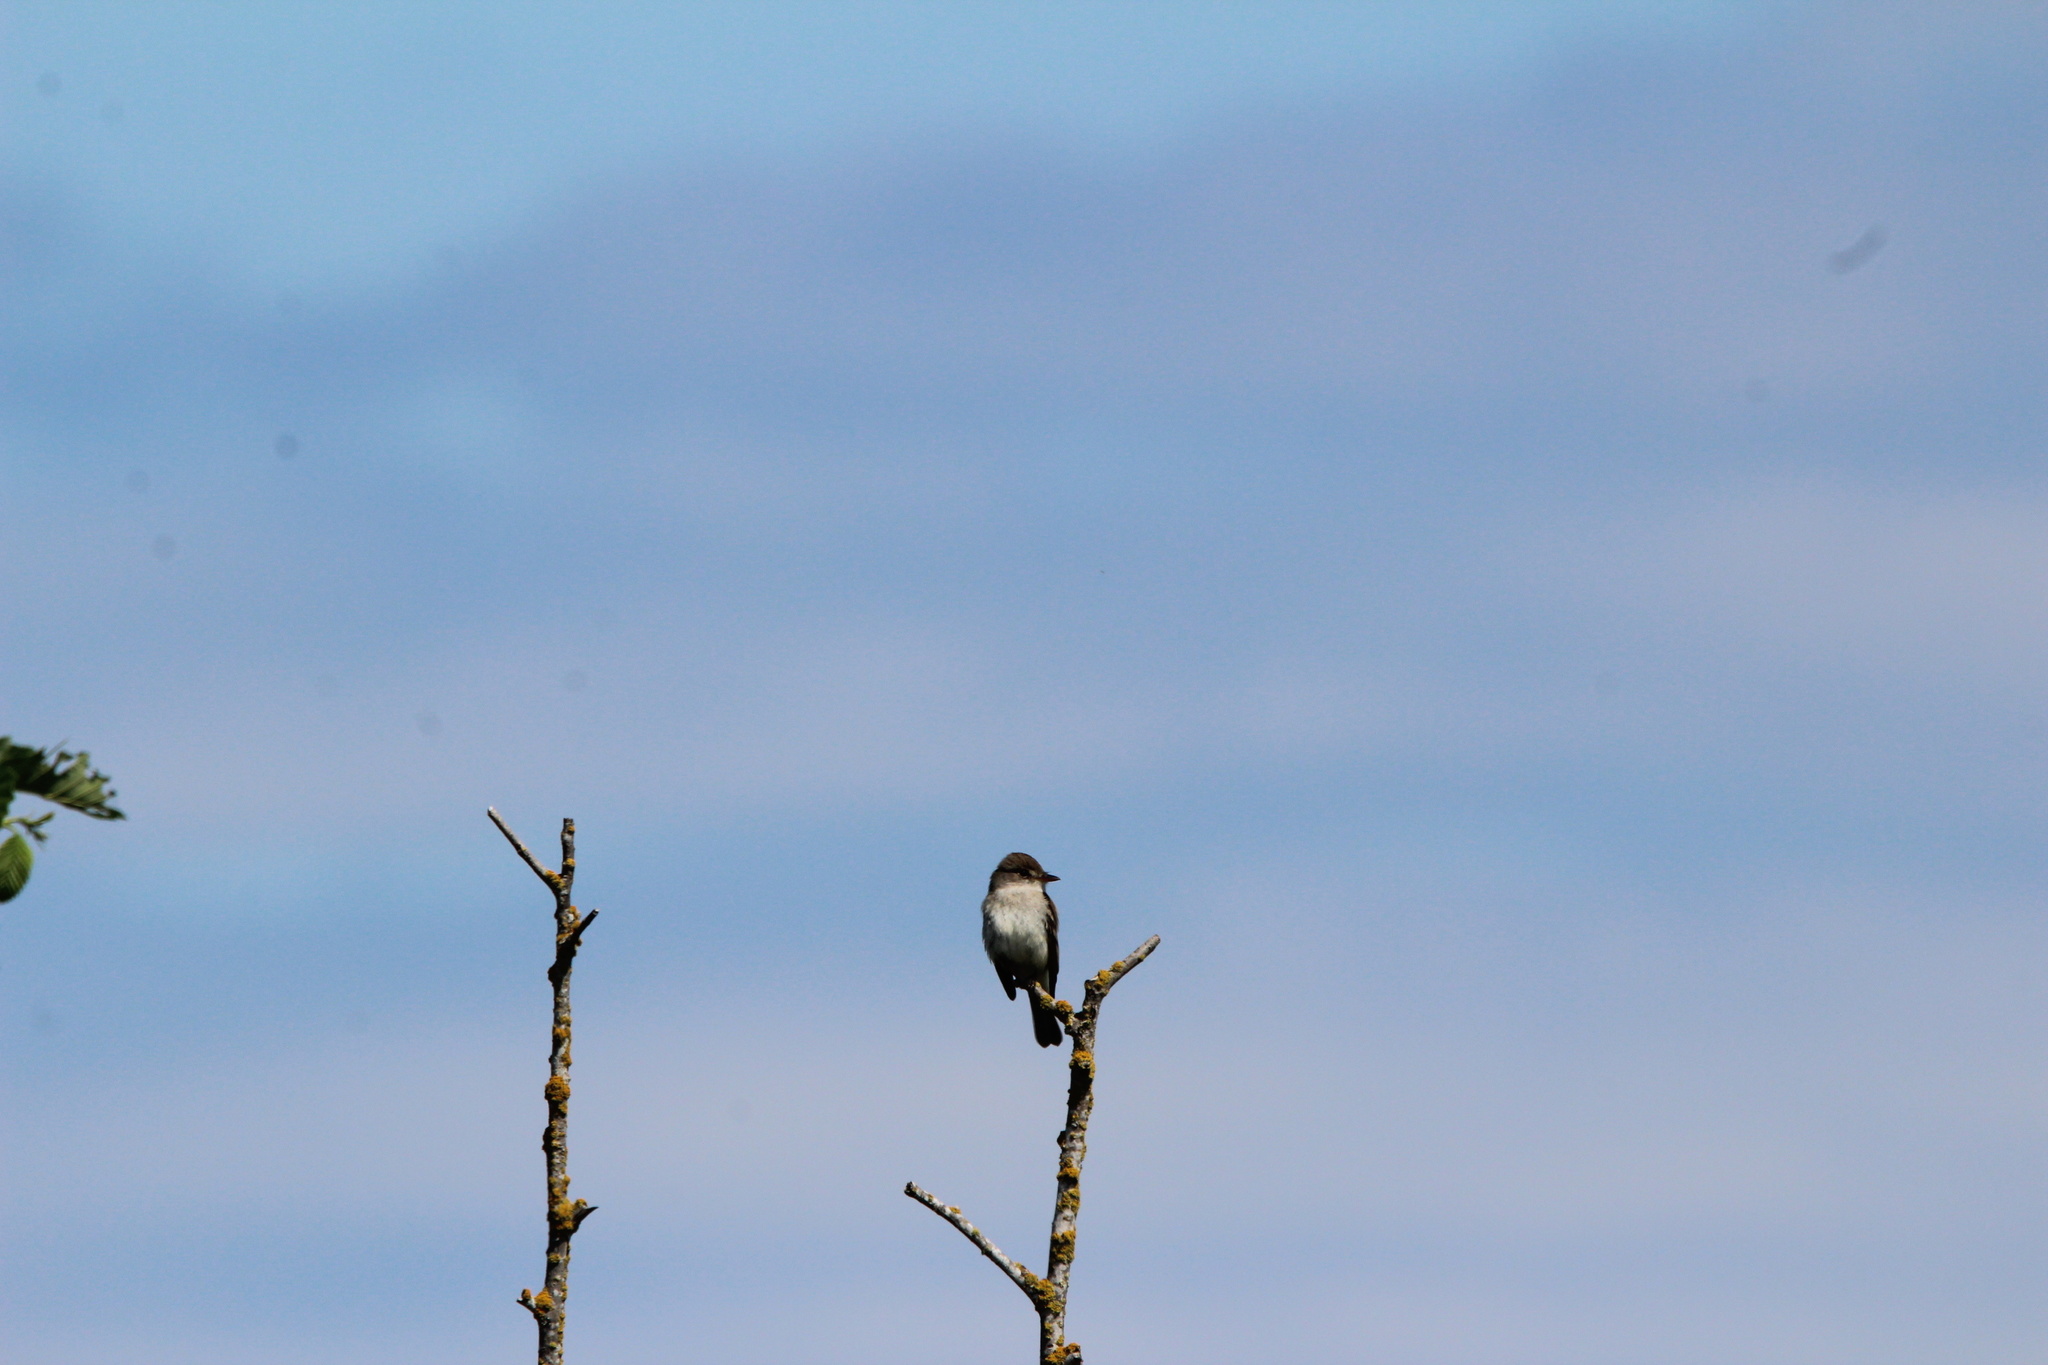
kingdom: Animalia
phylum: Chordata
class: Aves
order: Passeriformes
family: Tyrannidae
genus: Empidonax
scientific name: Empidonax traillii
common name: Willow flycatcher
